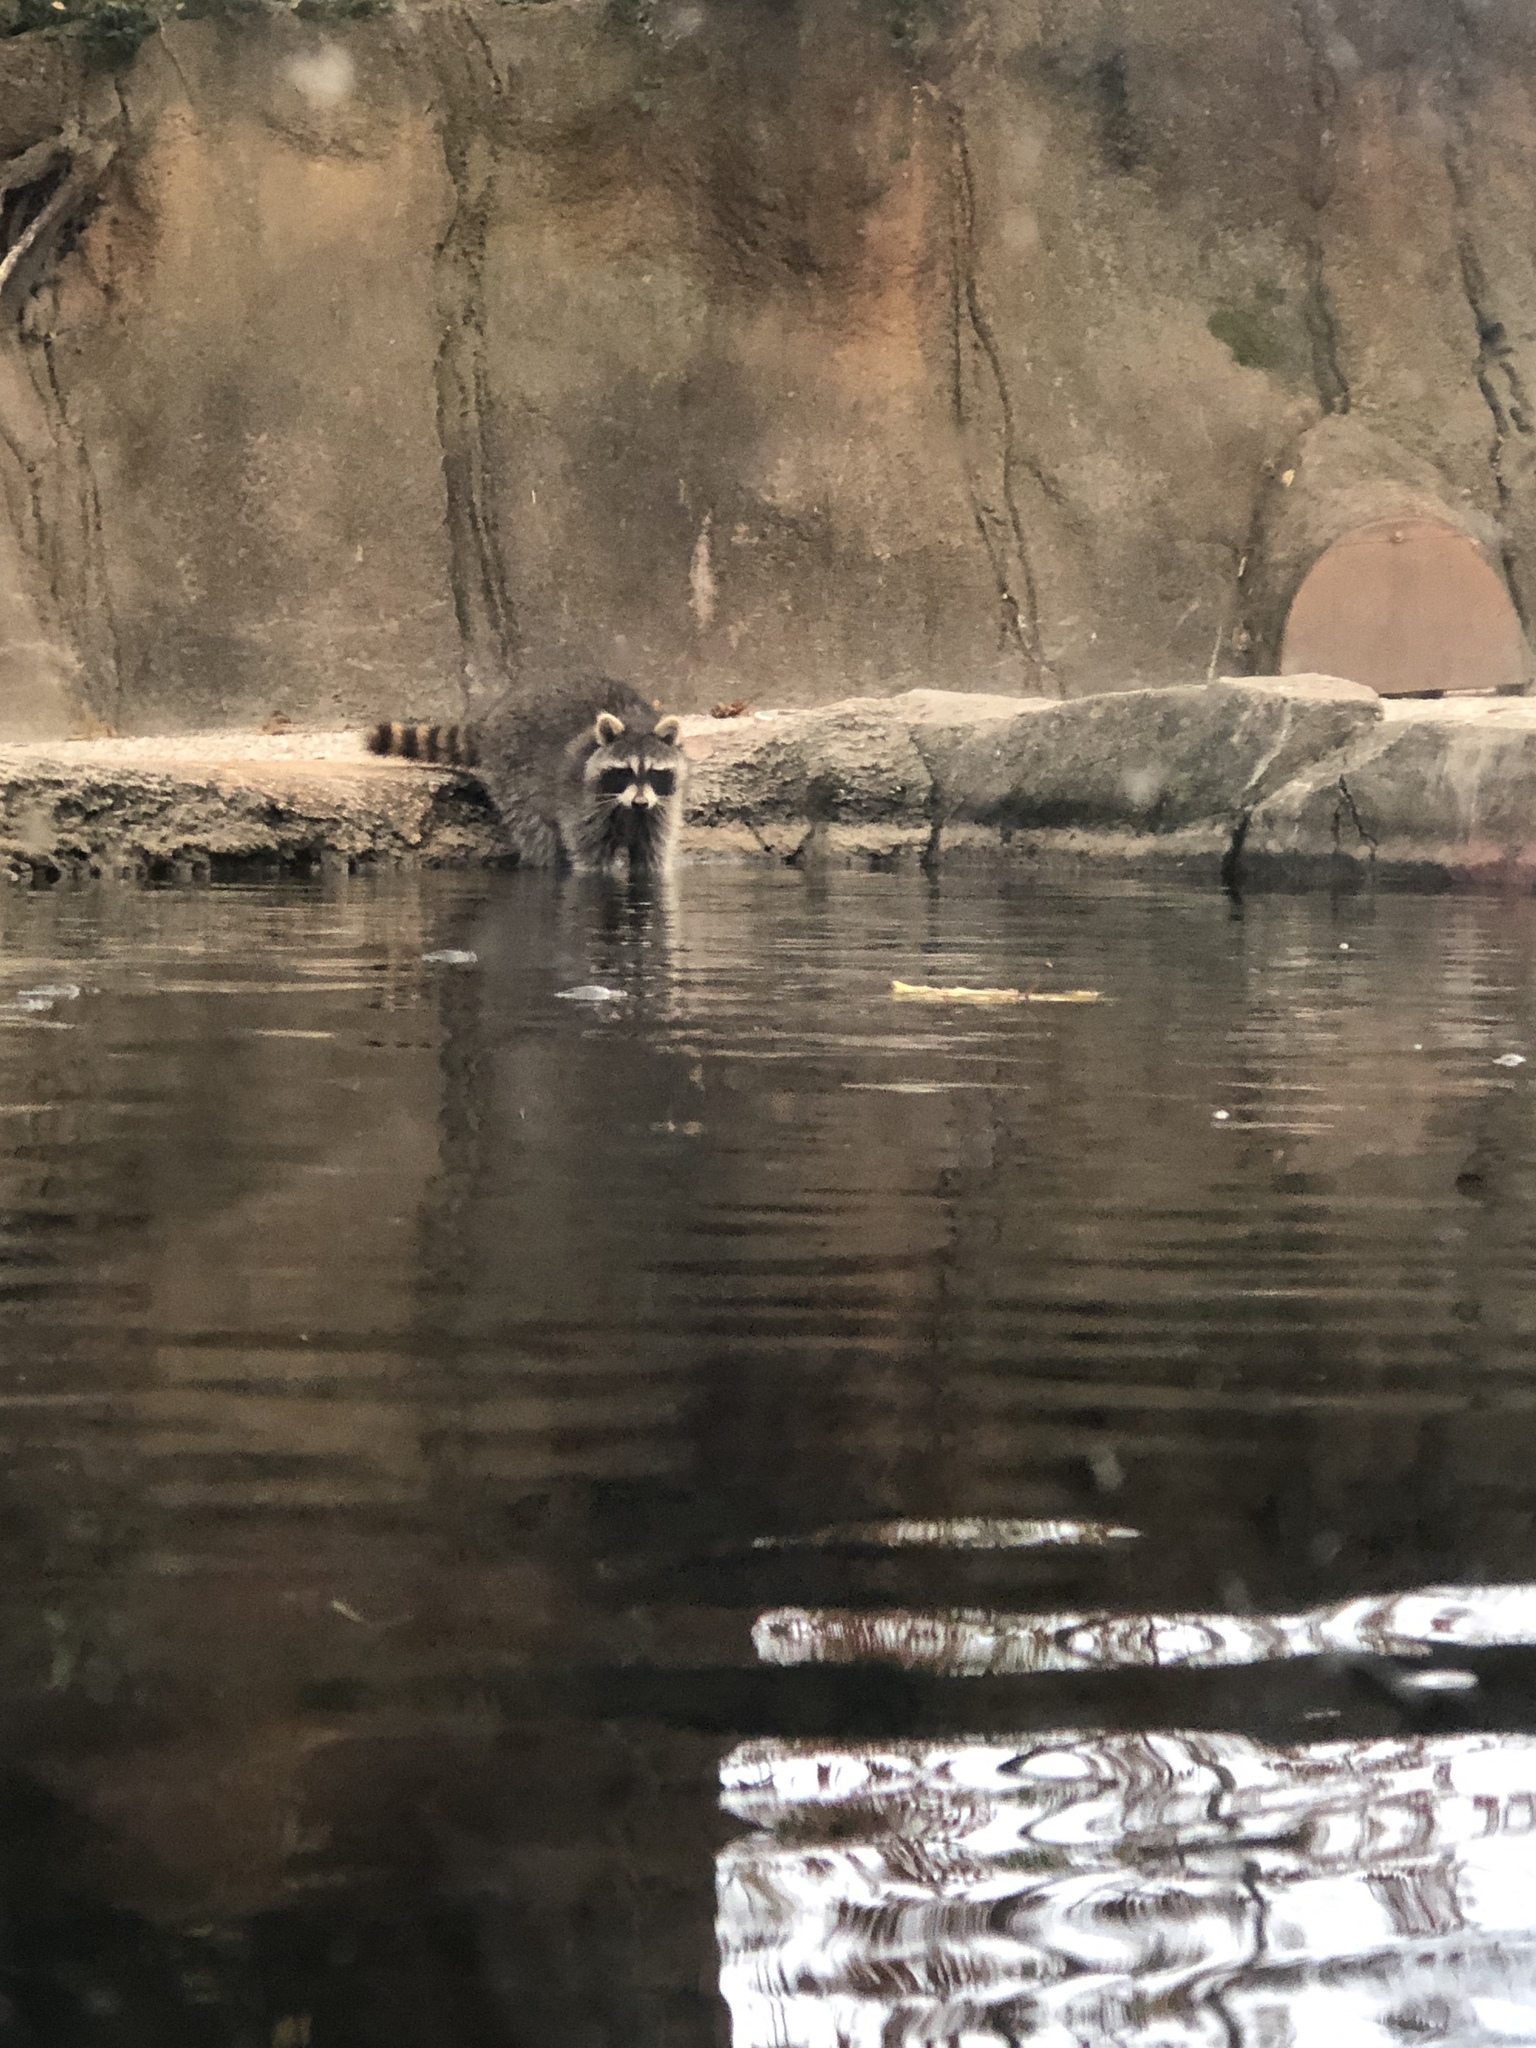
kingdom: Animalia
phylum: Chordata
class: Mammalia
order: Carnivora
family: Procyonidae
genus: Procyon
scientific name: Procyon lotor
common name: Raccoon
